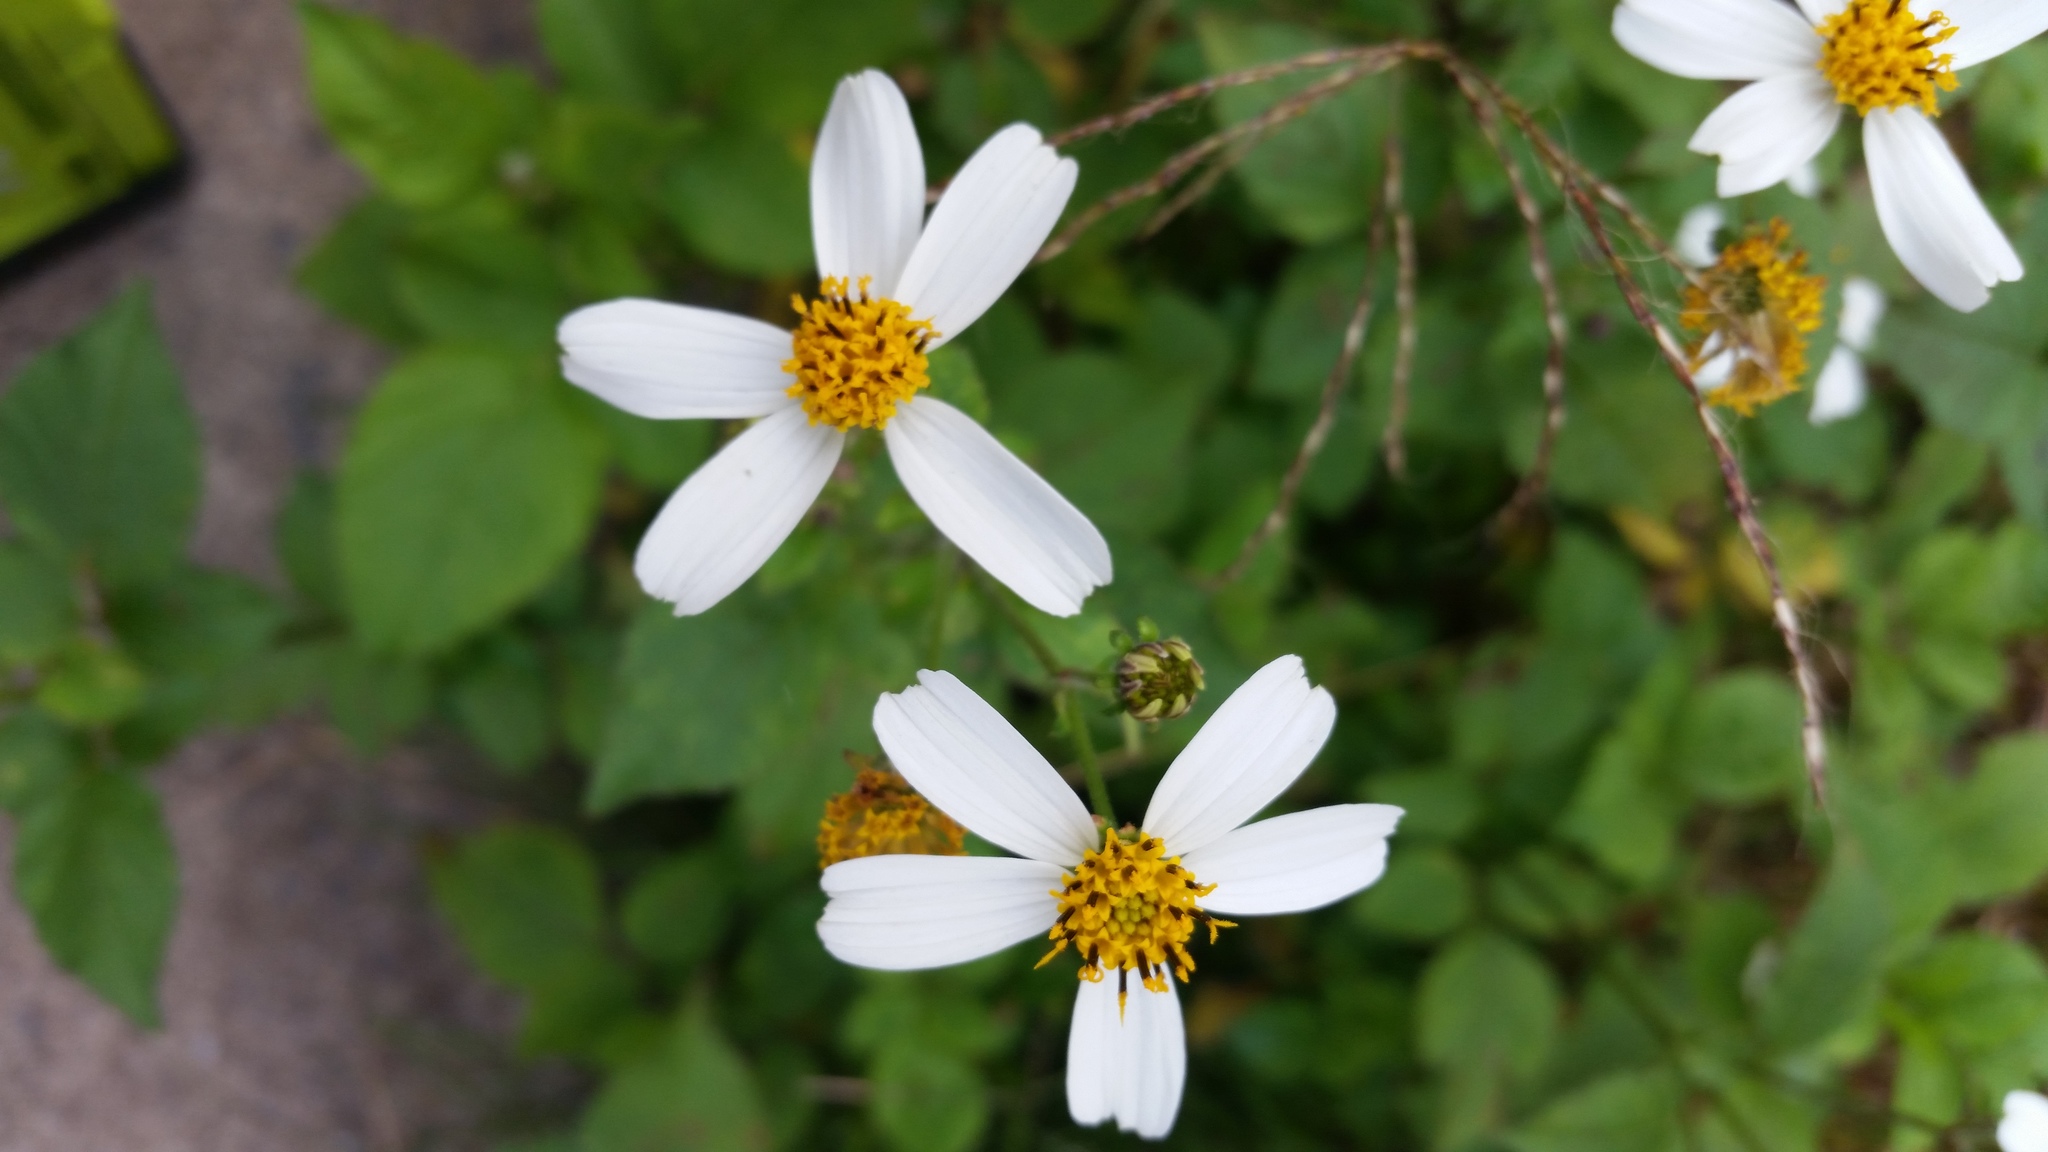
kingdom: Plantae
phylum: Tracheophyta
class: Magnoliopsida
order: Asterales
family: Asteraceae
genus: Bidens
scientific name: Bidens pilosa
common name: Black-jack
